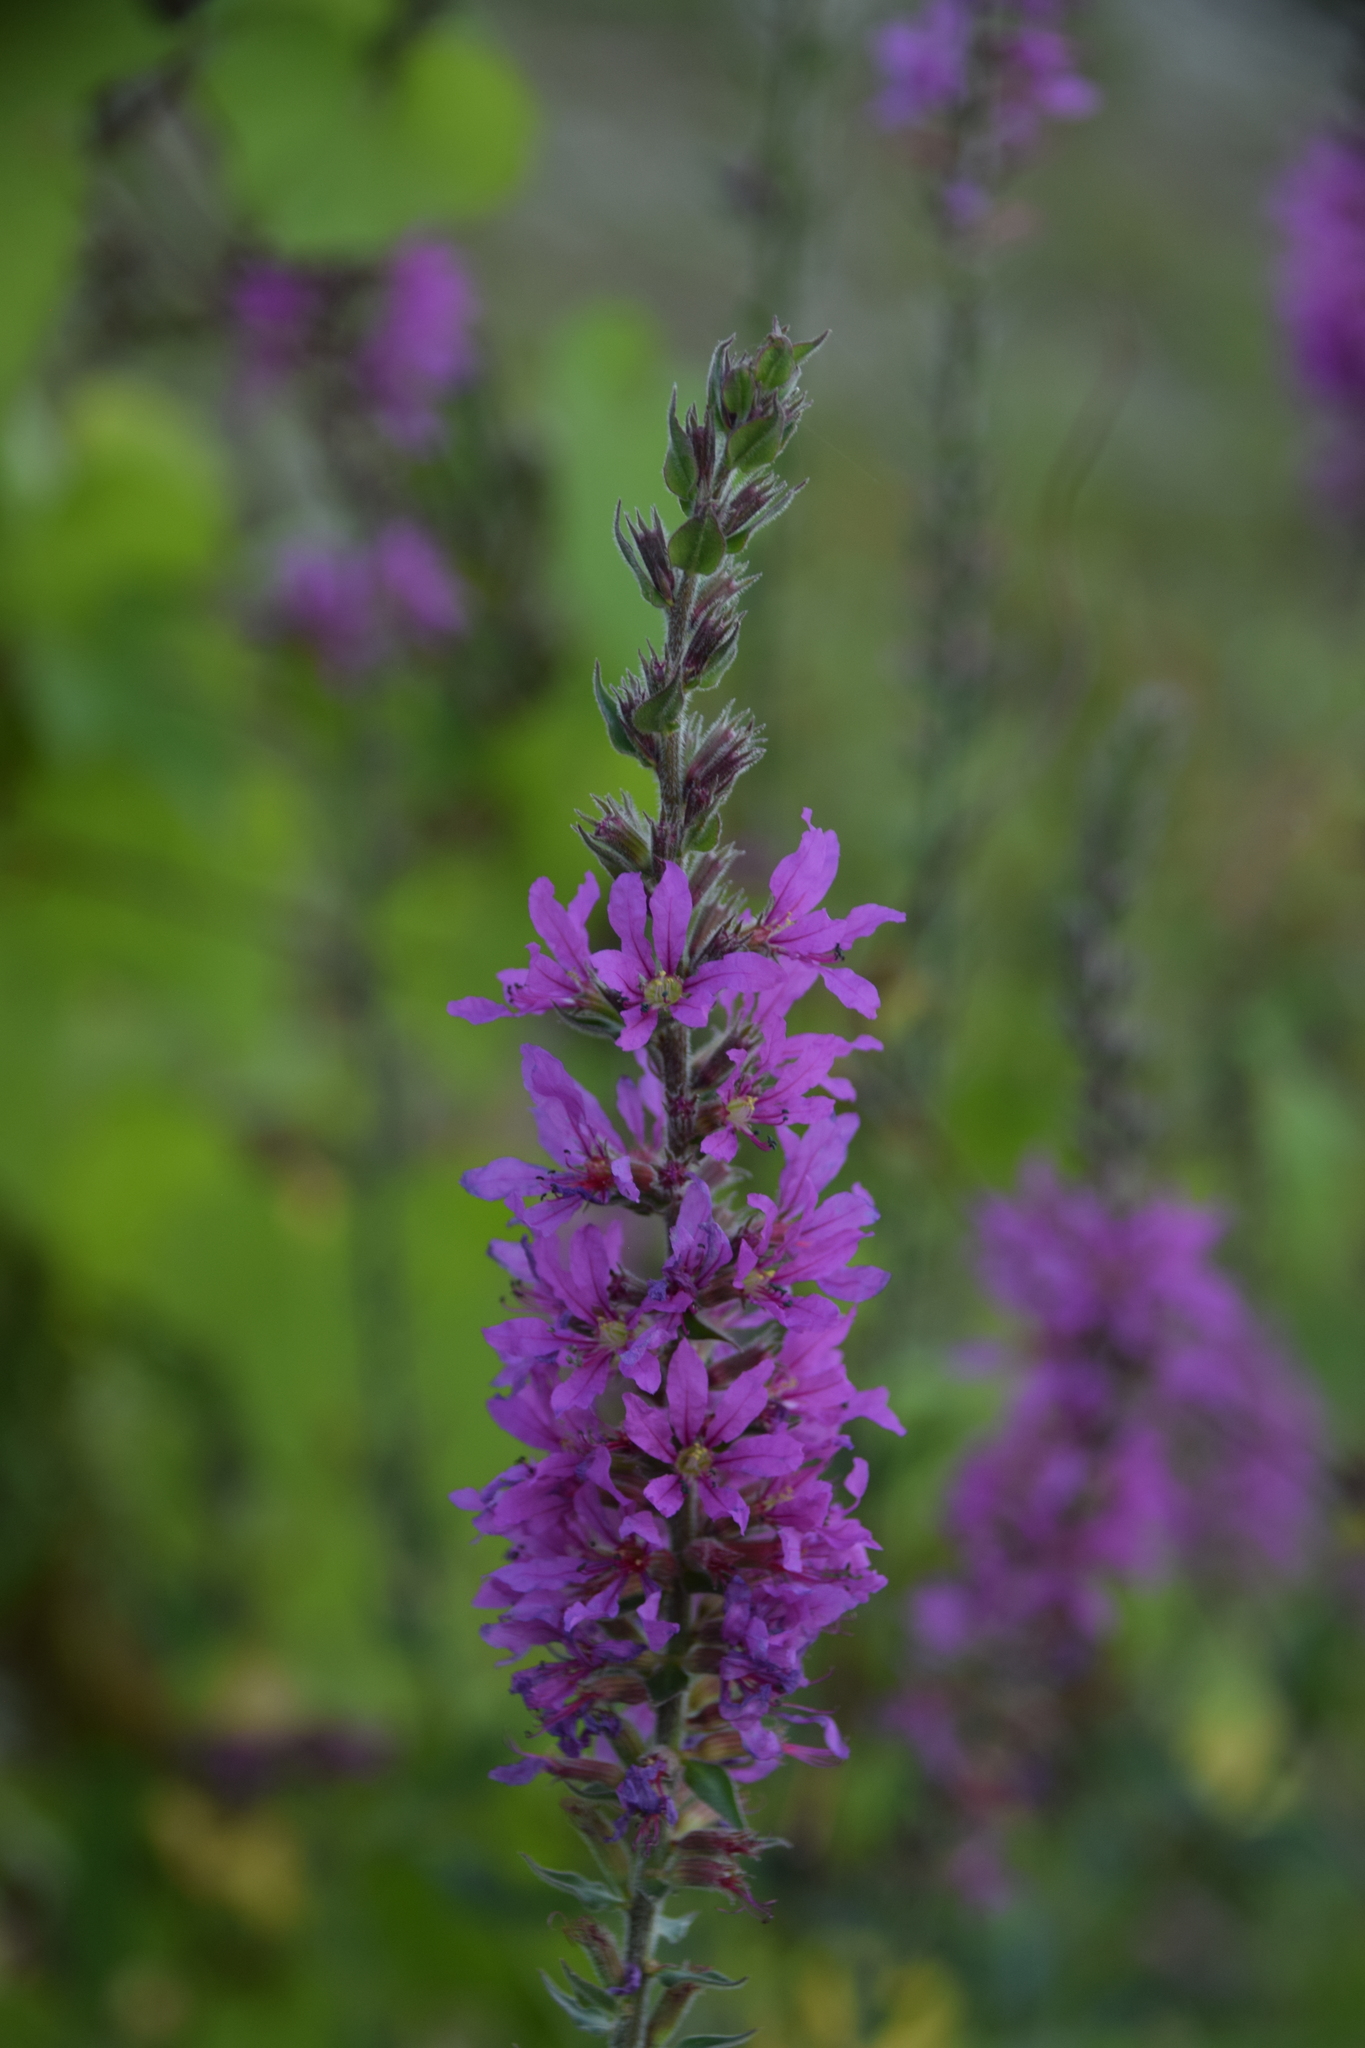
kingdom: Plantae
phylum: Tracheophyta
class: Magnoliopsida
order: Myrtales
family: Lythraceae
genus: Lythrum
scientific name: Lythrum salicaria
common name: Purple loosestrife
